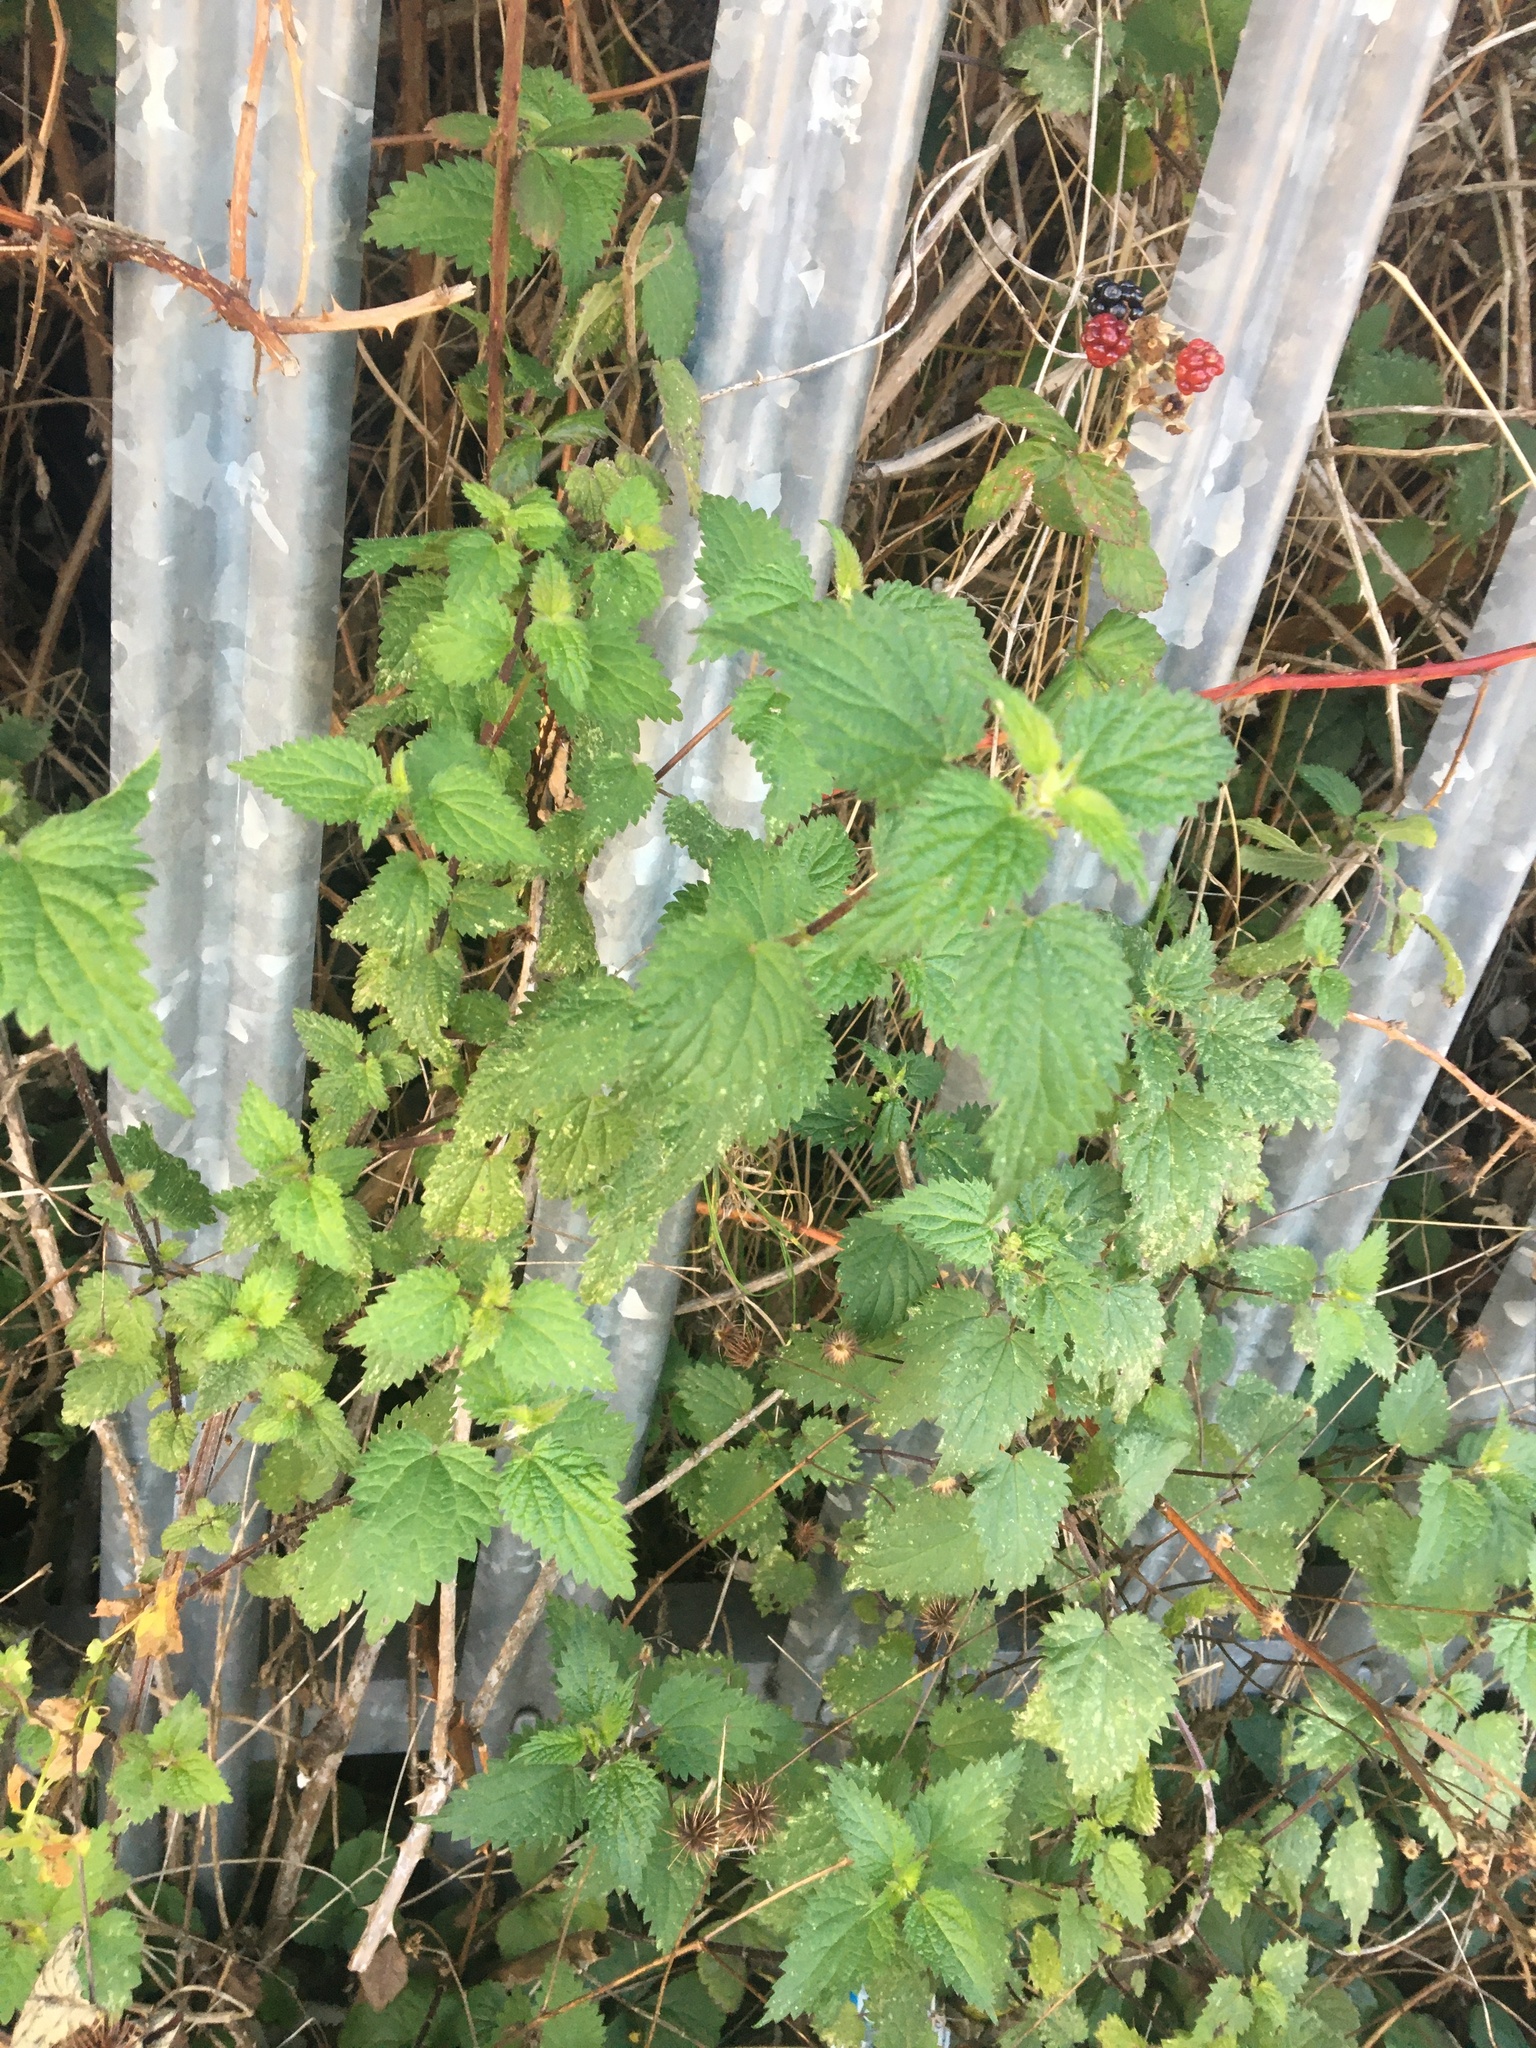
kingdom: Plantae
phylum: Tracheophyta
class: Magnoliopsida
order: Rosales
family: Urticaceae
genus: Urtica
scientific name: Urtica dioica
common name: Common nettle
